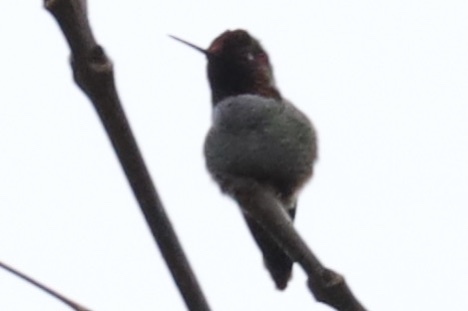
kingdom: Animalia
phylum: Chordata
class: Aves
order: Apodiformes
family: Trochilidae
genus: Calypte
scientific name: Calypte anna
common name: Anna's hummingbird
